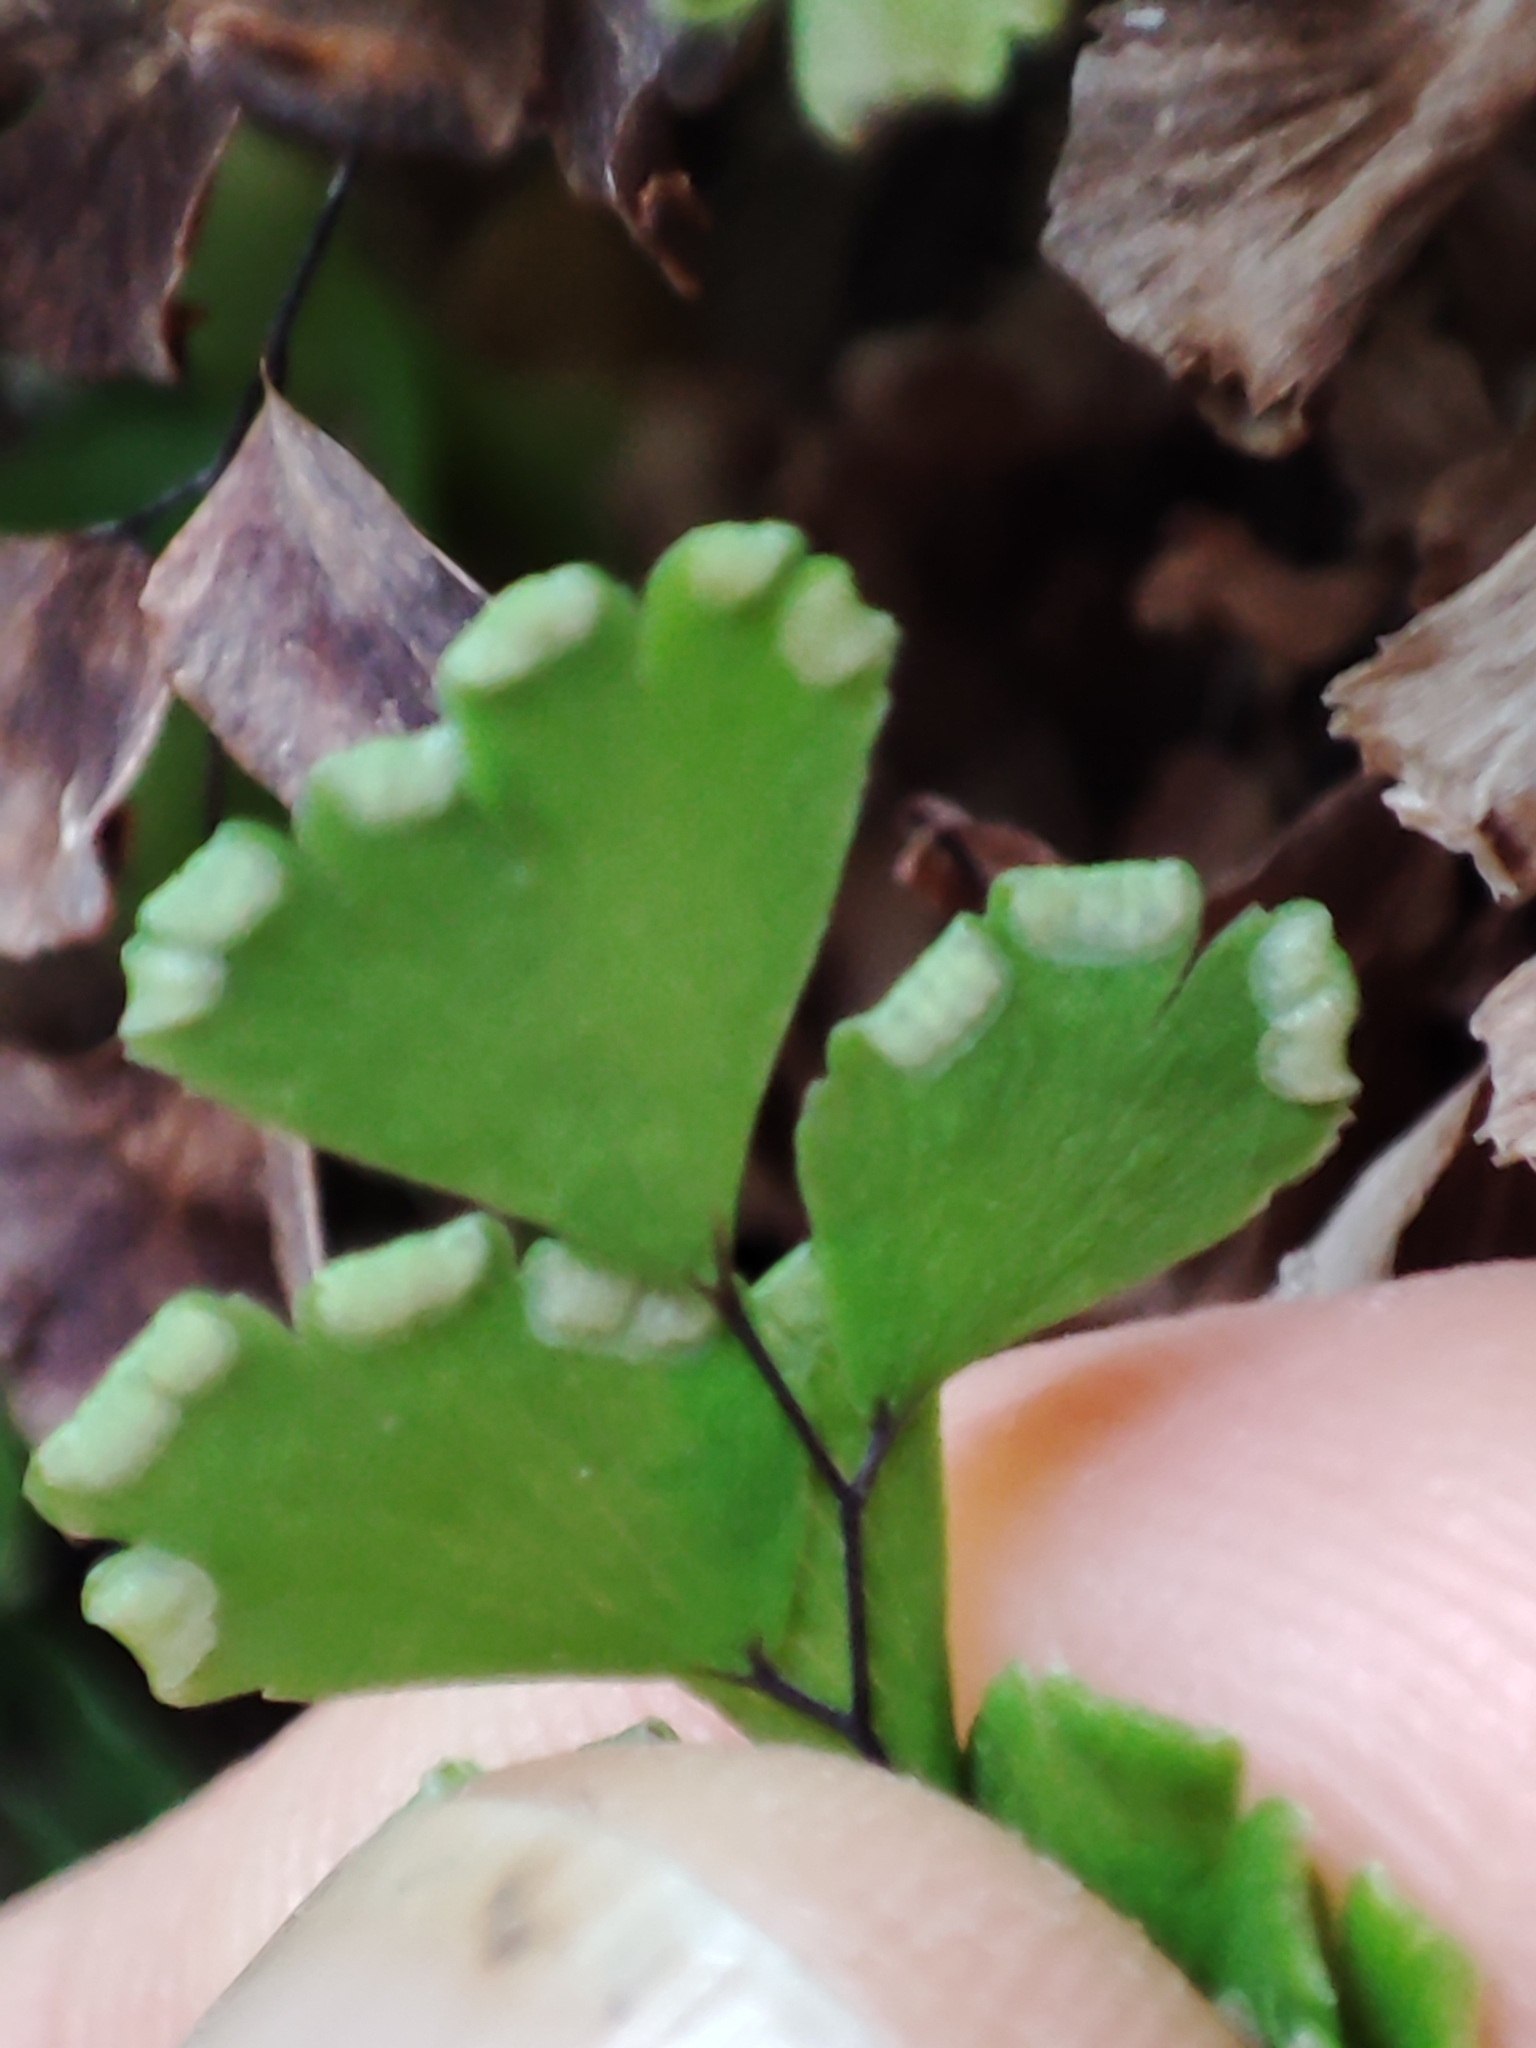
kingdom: Plantae
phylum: Tracheophyta
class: Polypodiopsida
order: Polypodiales
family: Pteridaceae
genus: Adiantum
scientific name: Adiantum capillus-veneris
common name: Maidenhair fern
